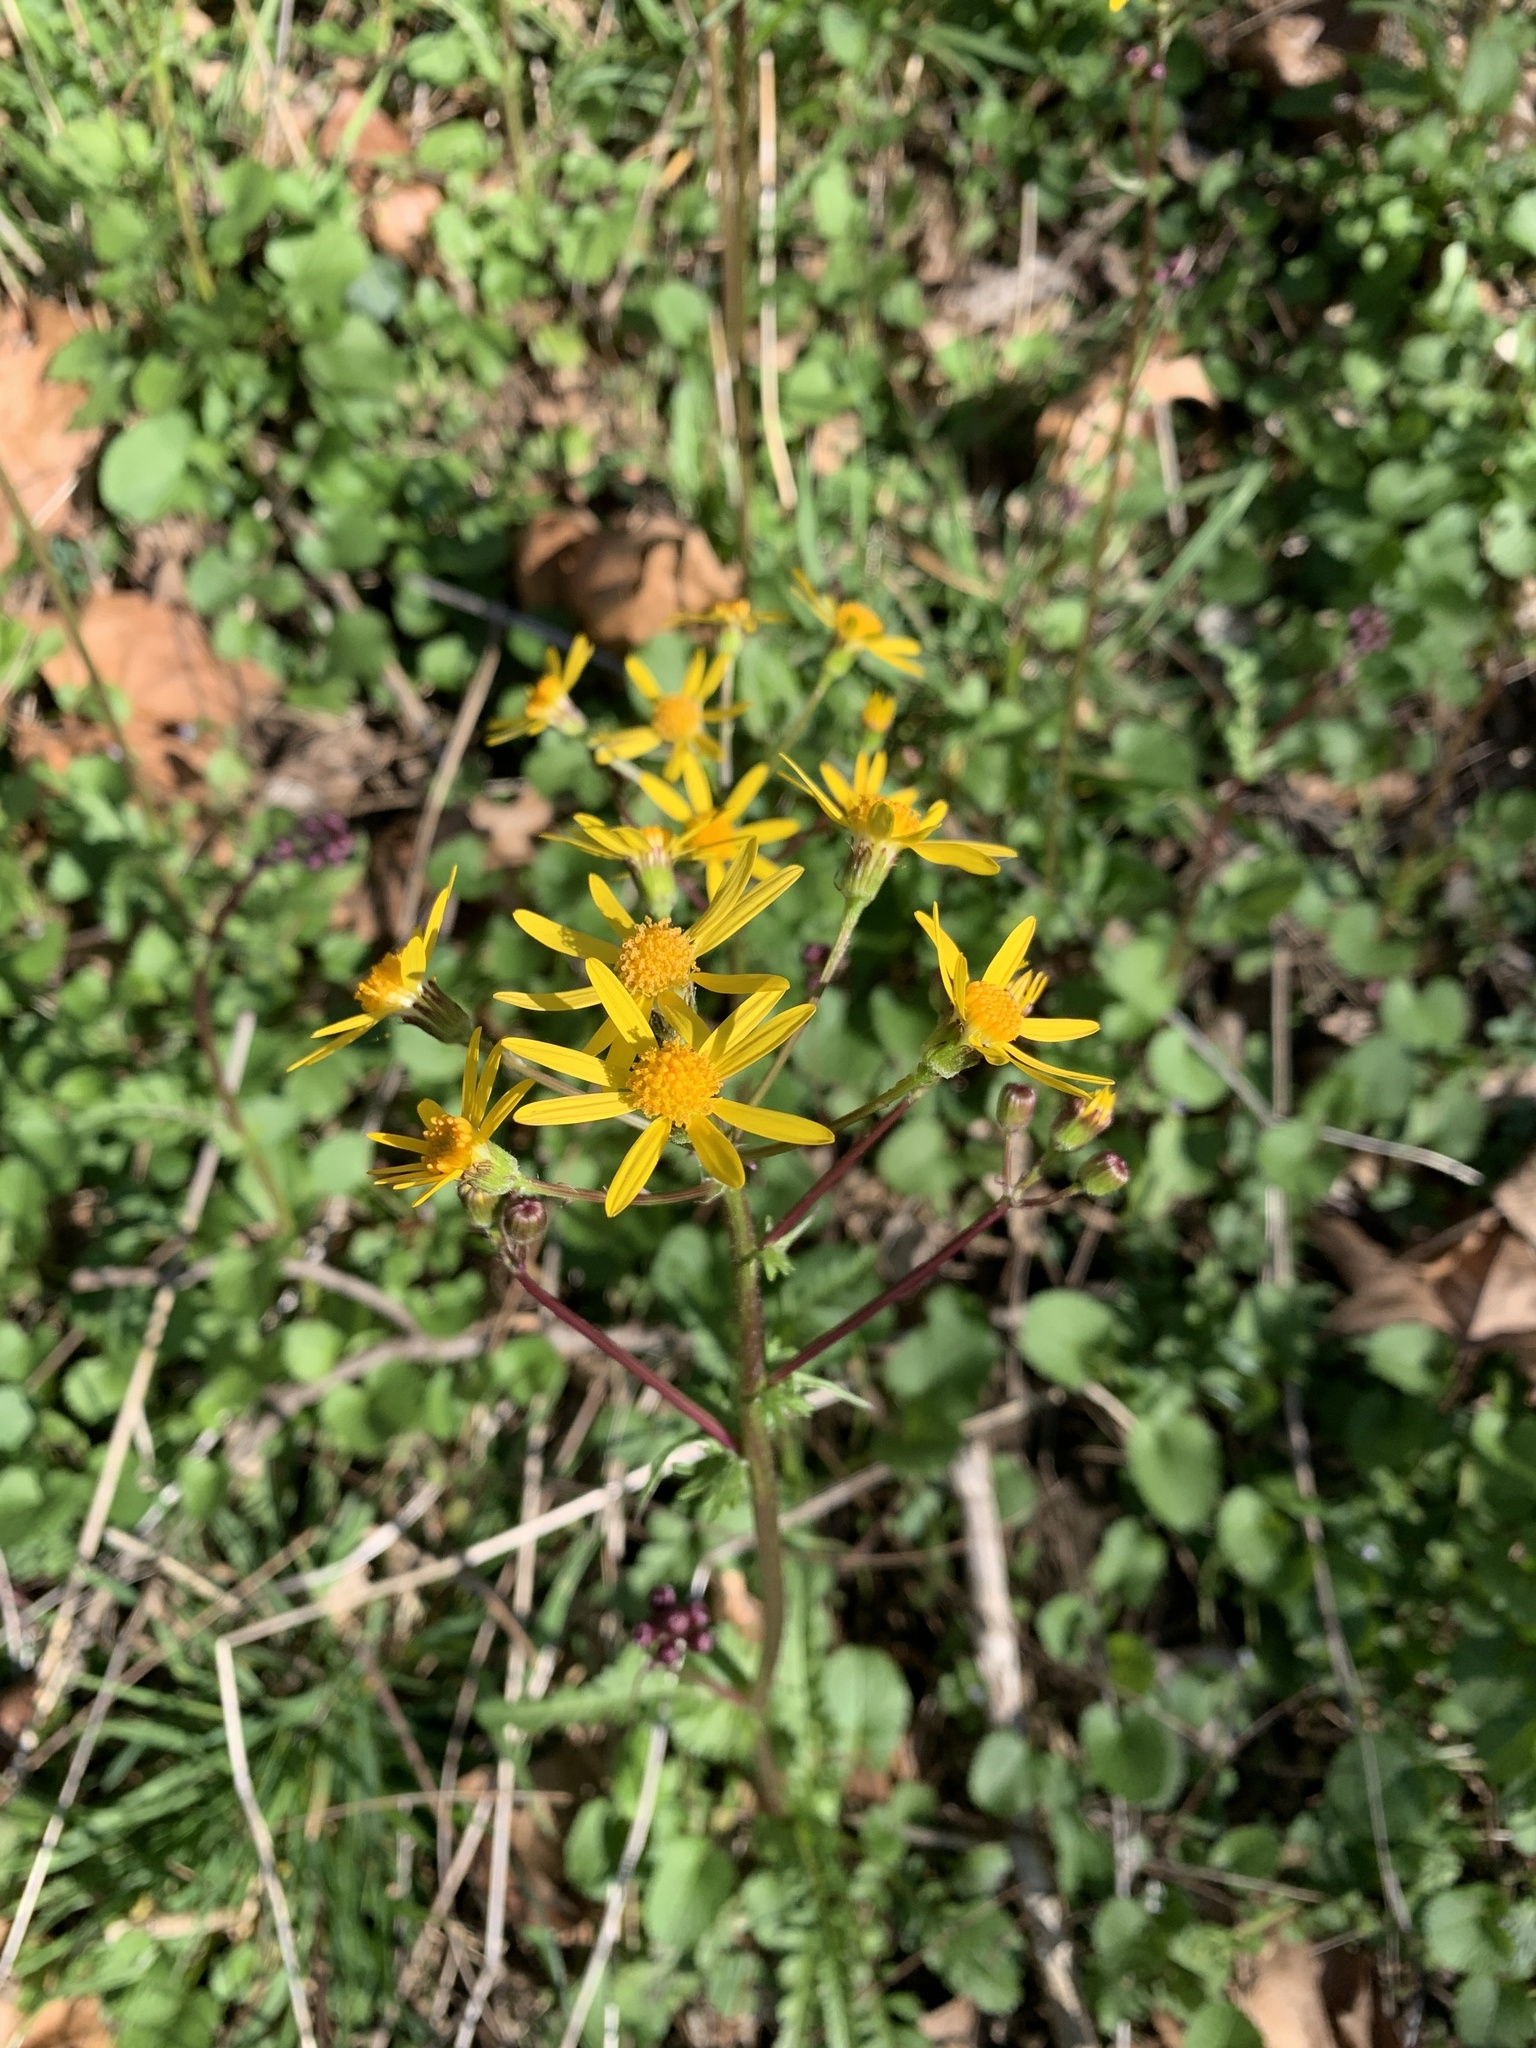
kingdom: Plantae
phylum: Tracheophyta
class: Magnoliopsida
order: Asterales
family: Asteraceae
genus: Packera
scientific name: Packera aurea
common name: Golden groundsel
